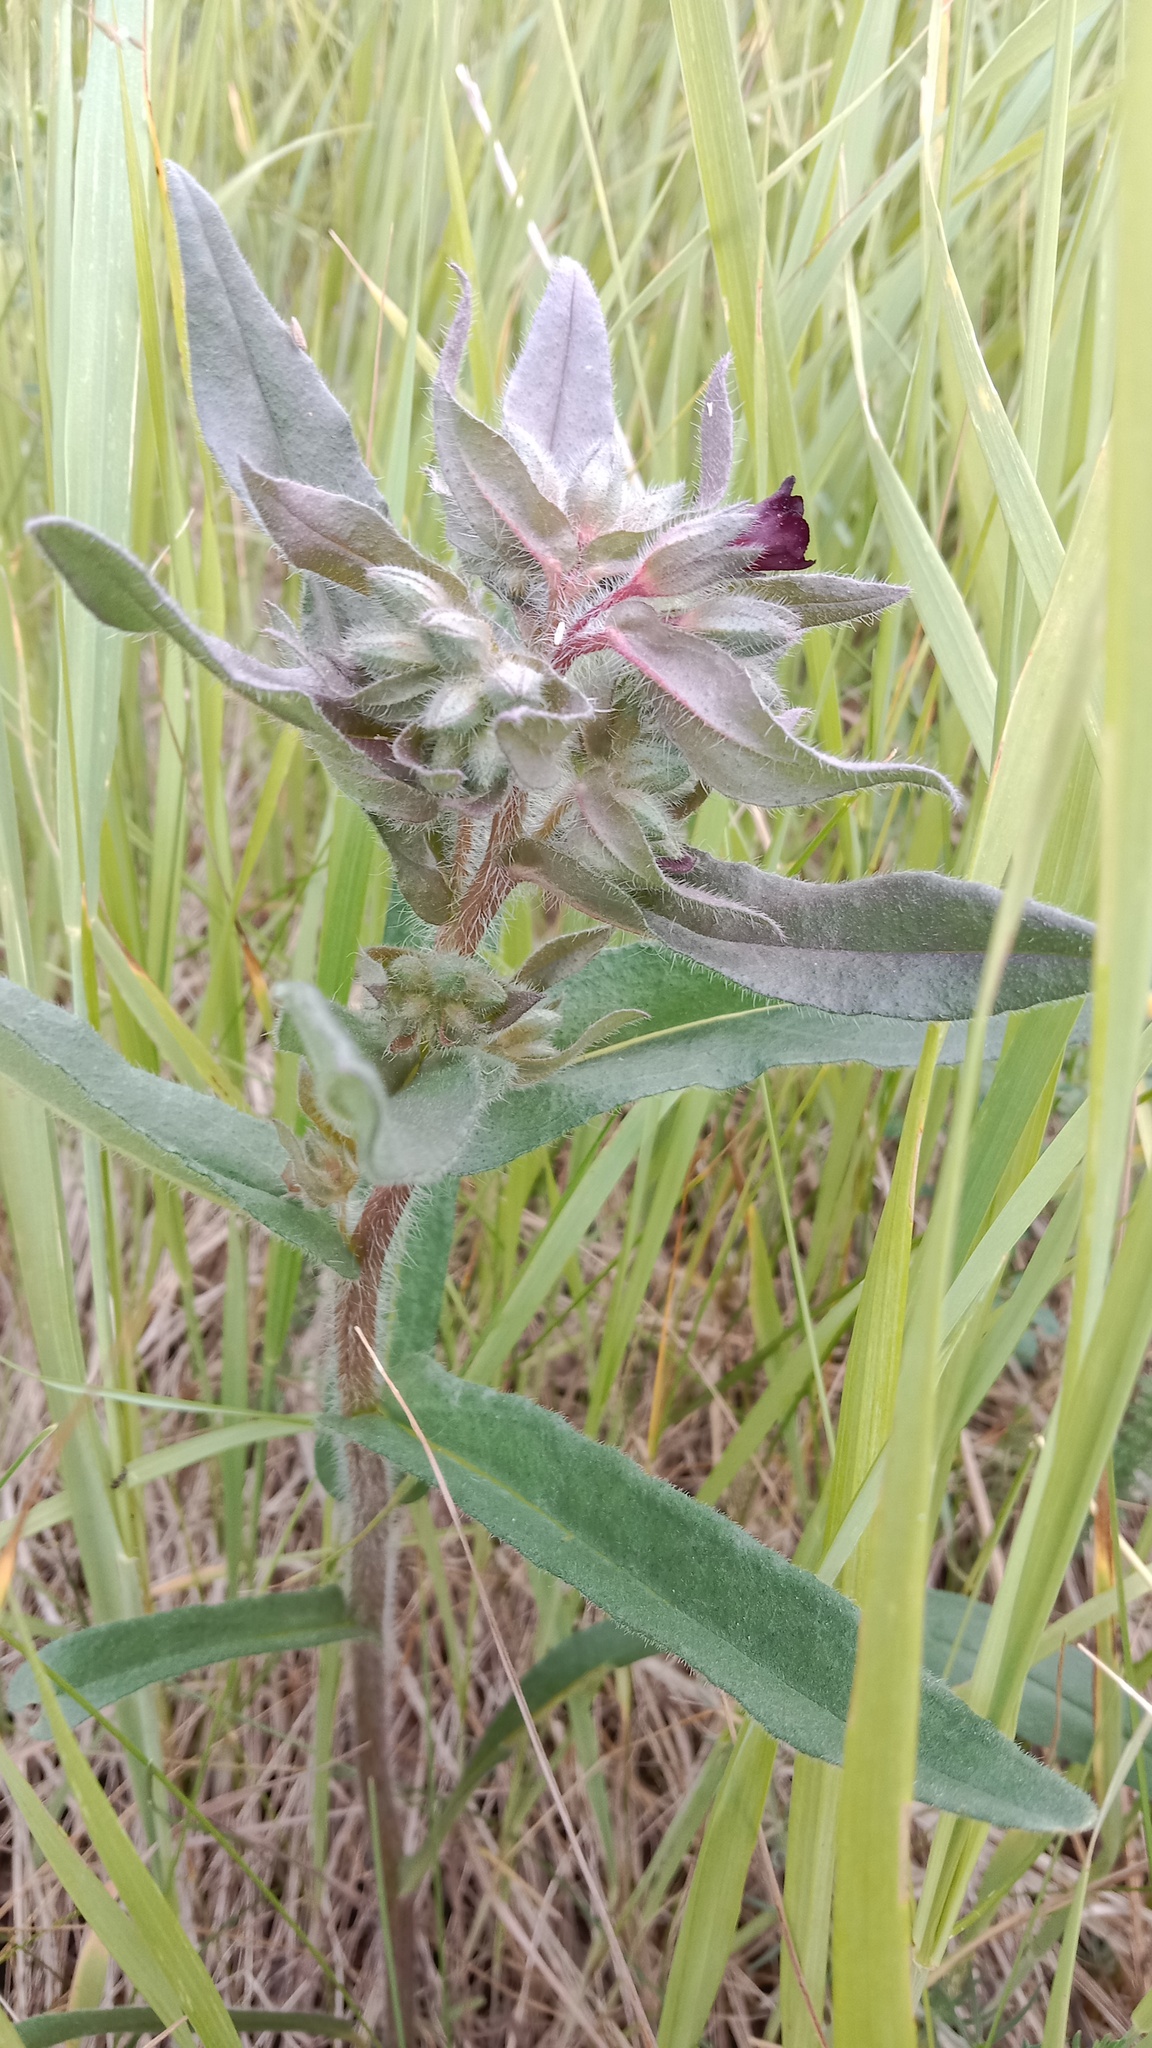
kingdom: Plantae
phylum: Tracheophyta
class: Magnoliopsida
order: Boraginales
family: Boraginaceae
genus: Nonea
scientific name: Nonea pulla
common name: Brown nonea
